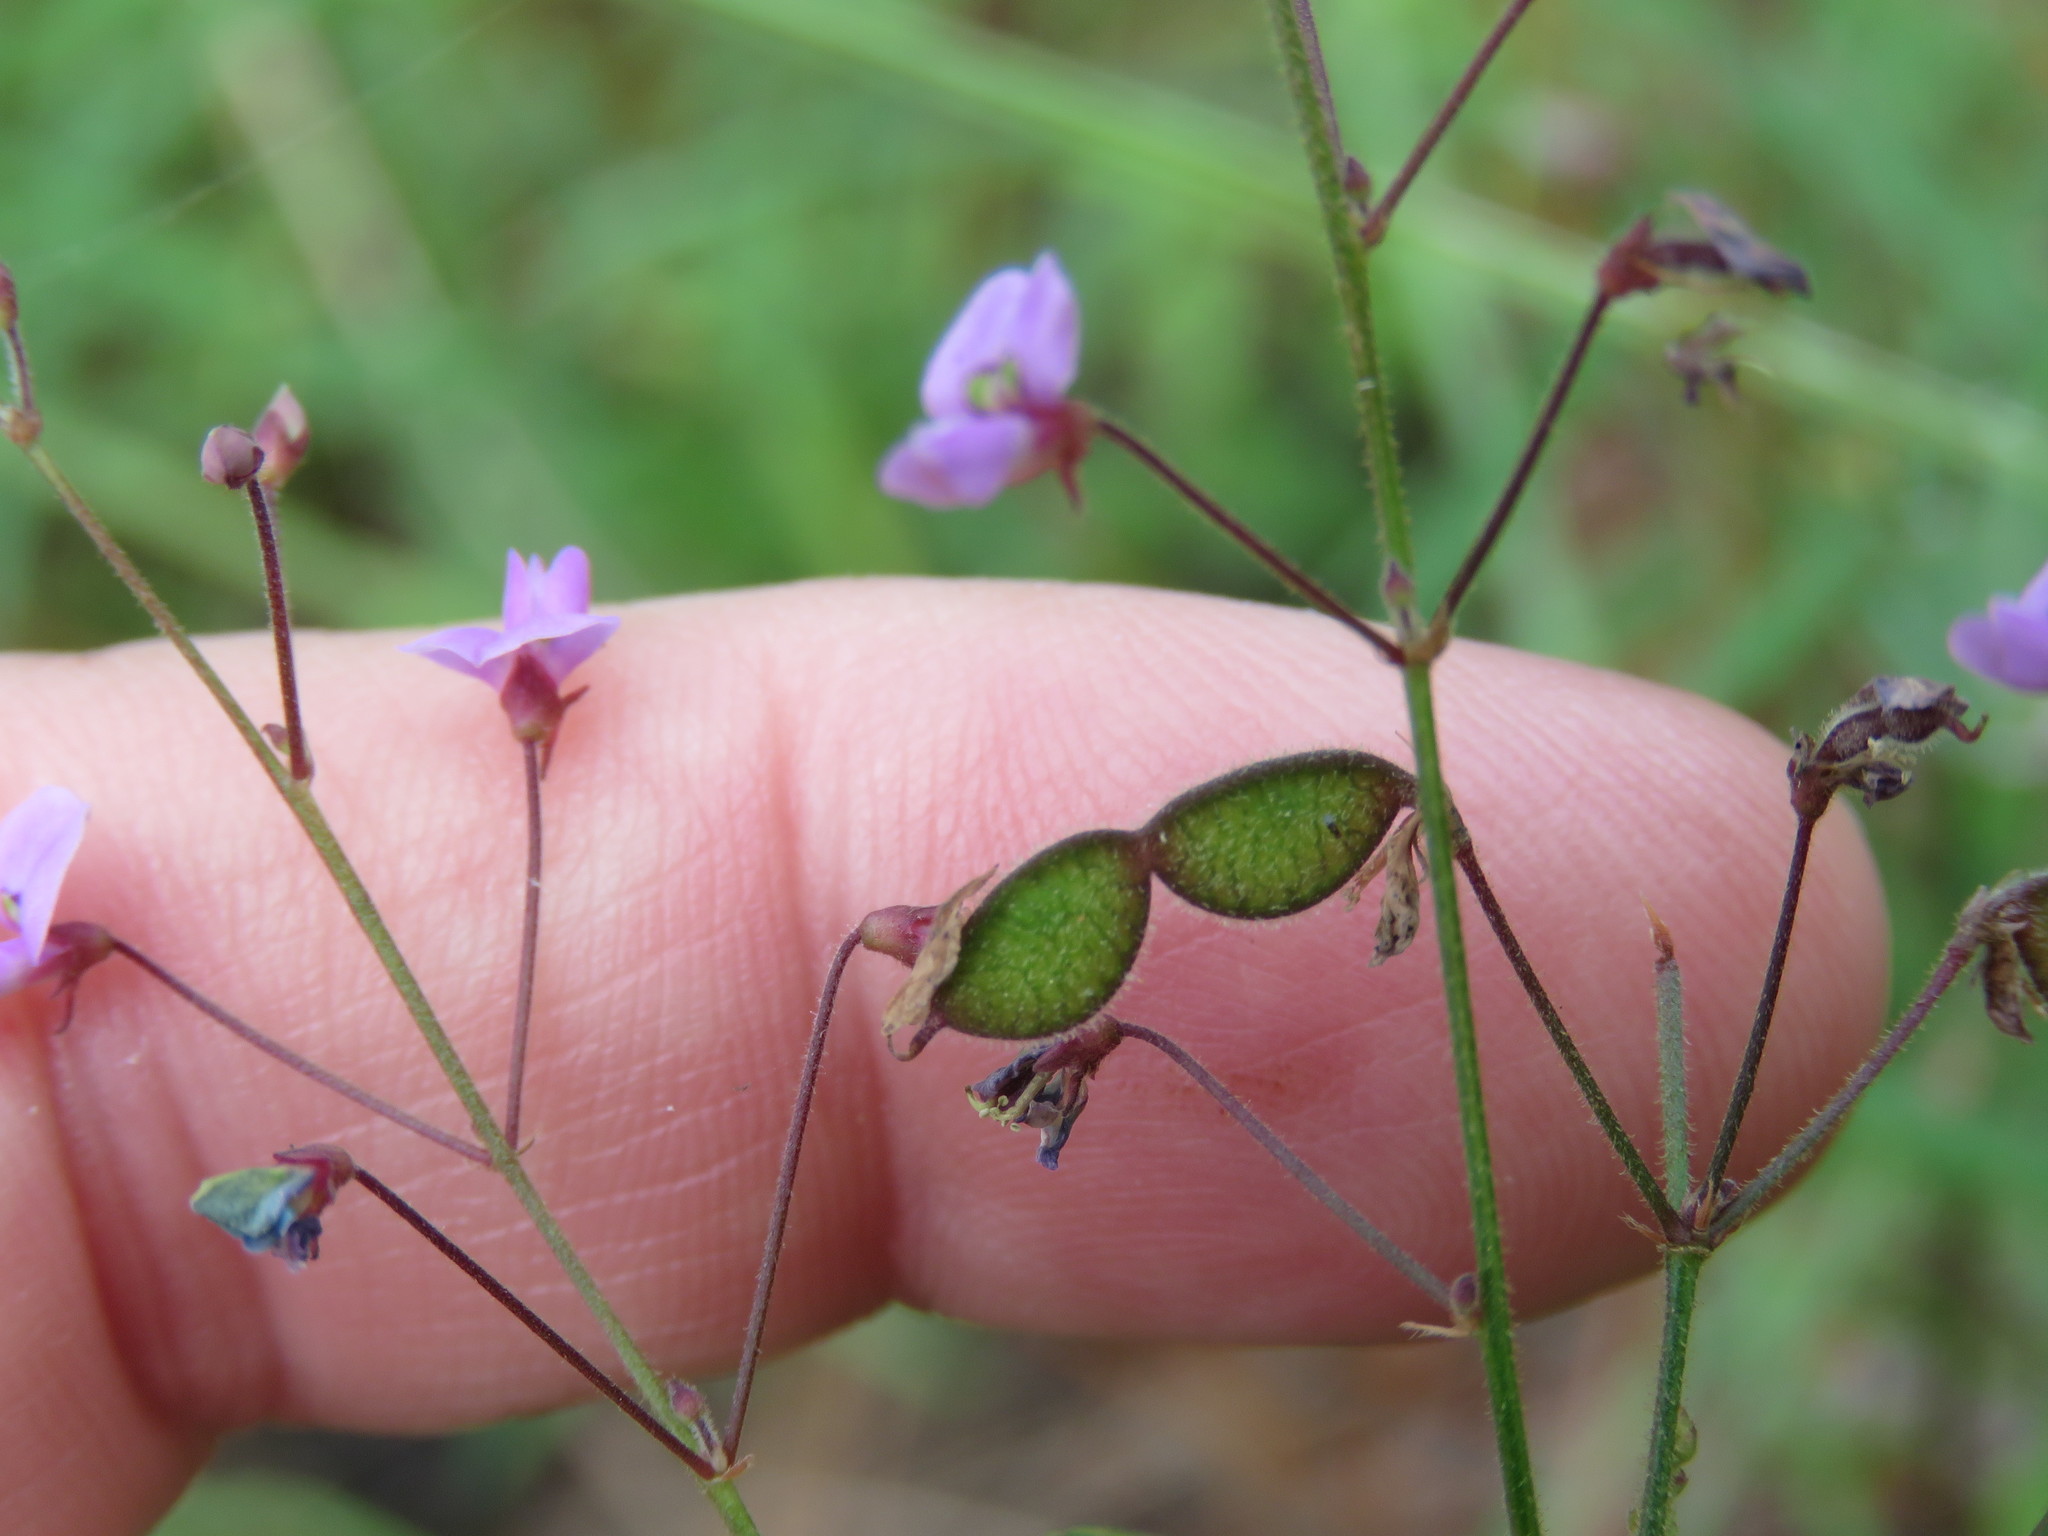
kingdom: Plantae
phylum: Tracheophyta
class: Magnoliopsida
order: Fabales
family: Fabaceae
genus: Desmodium
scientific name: Desmodium ciliare
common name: Hairy small-leaf ticktrefoil
